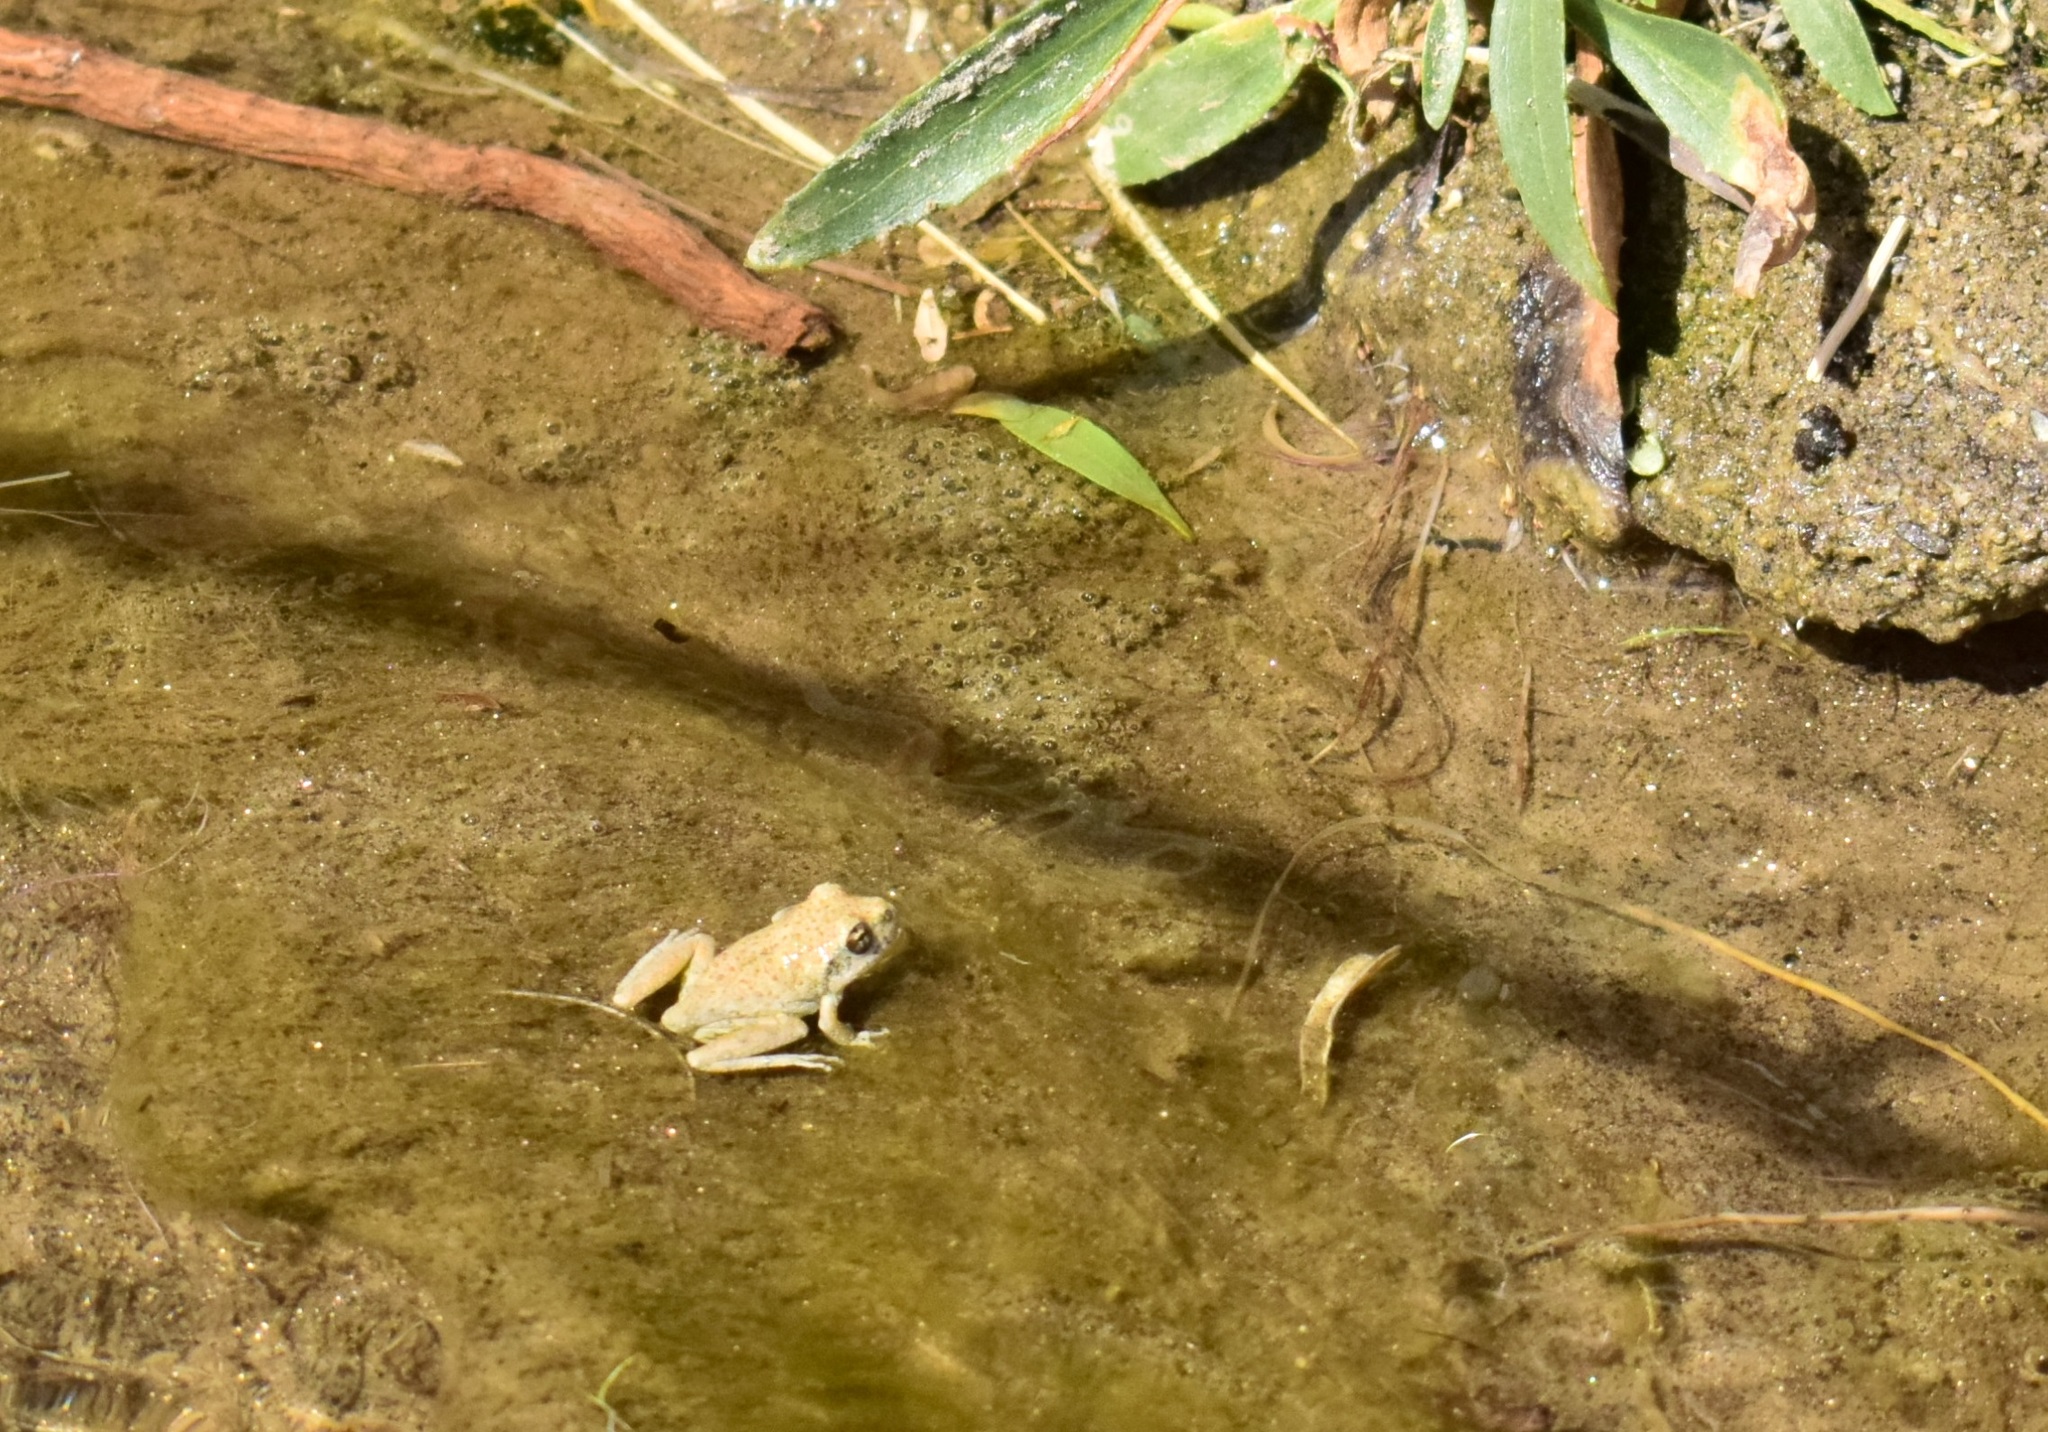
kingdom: Animalia
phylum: Chordata
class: Amphibia
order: Anura
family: Hylidae
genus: Pseudacris
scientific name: Pseudacris cadaverina
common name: California chorus frog
